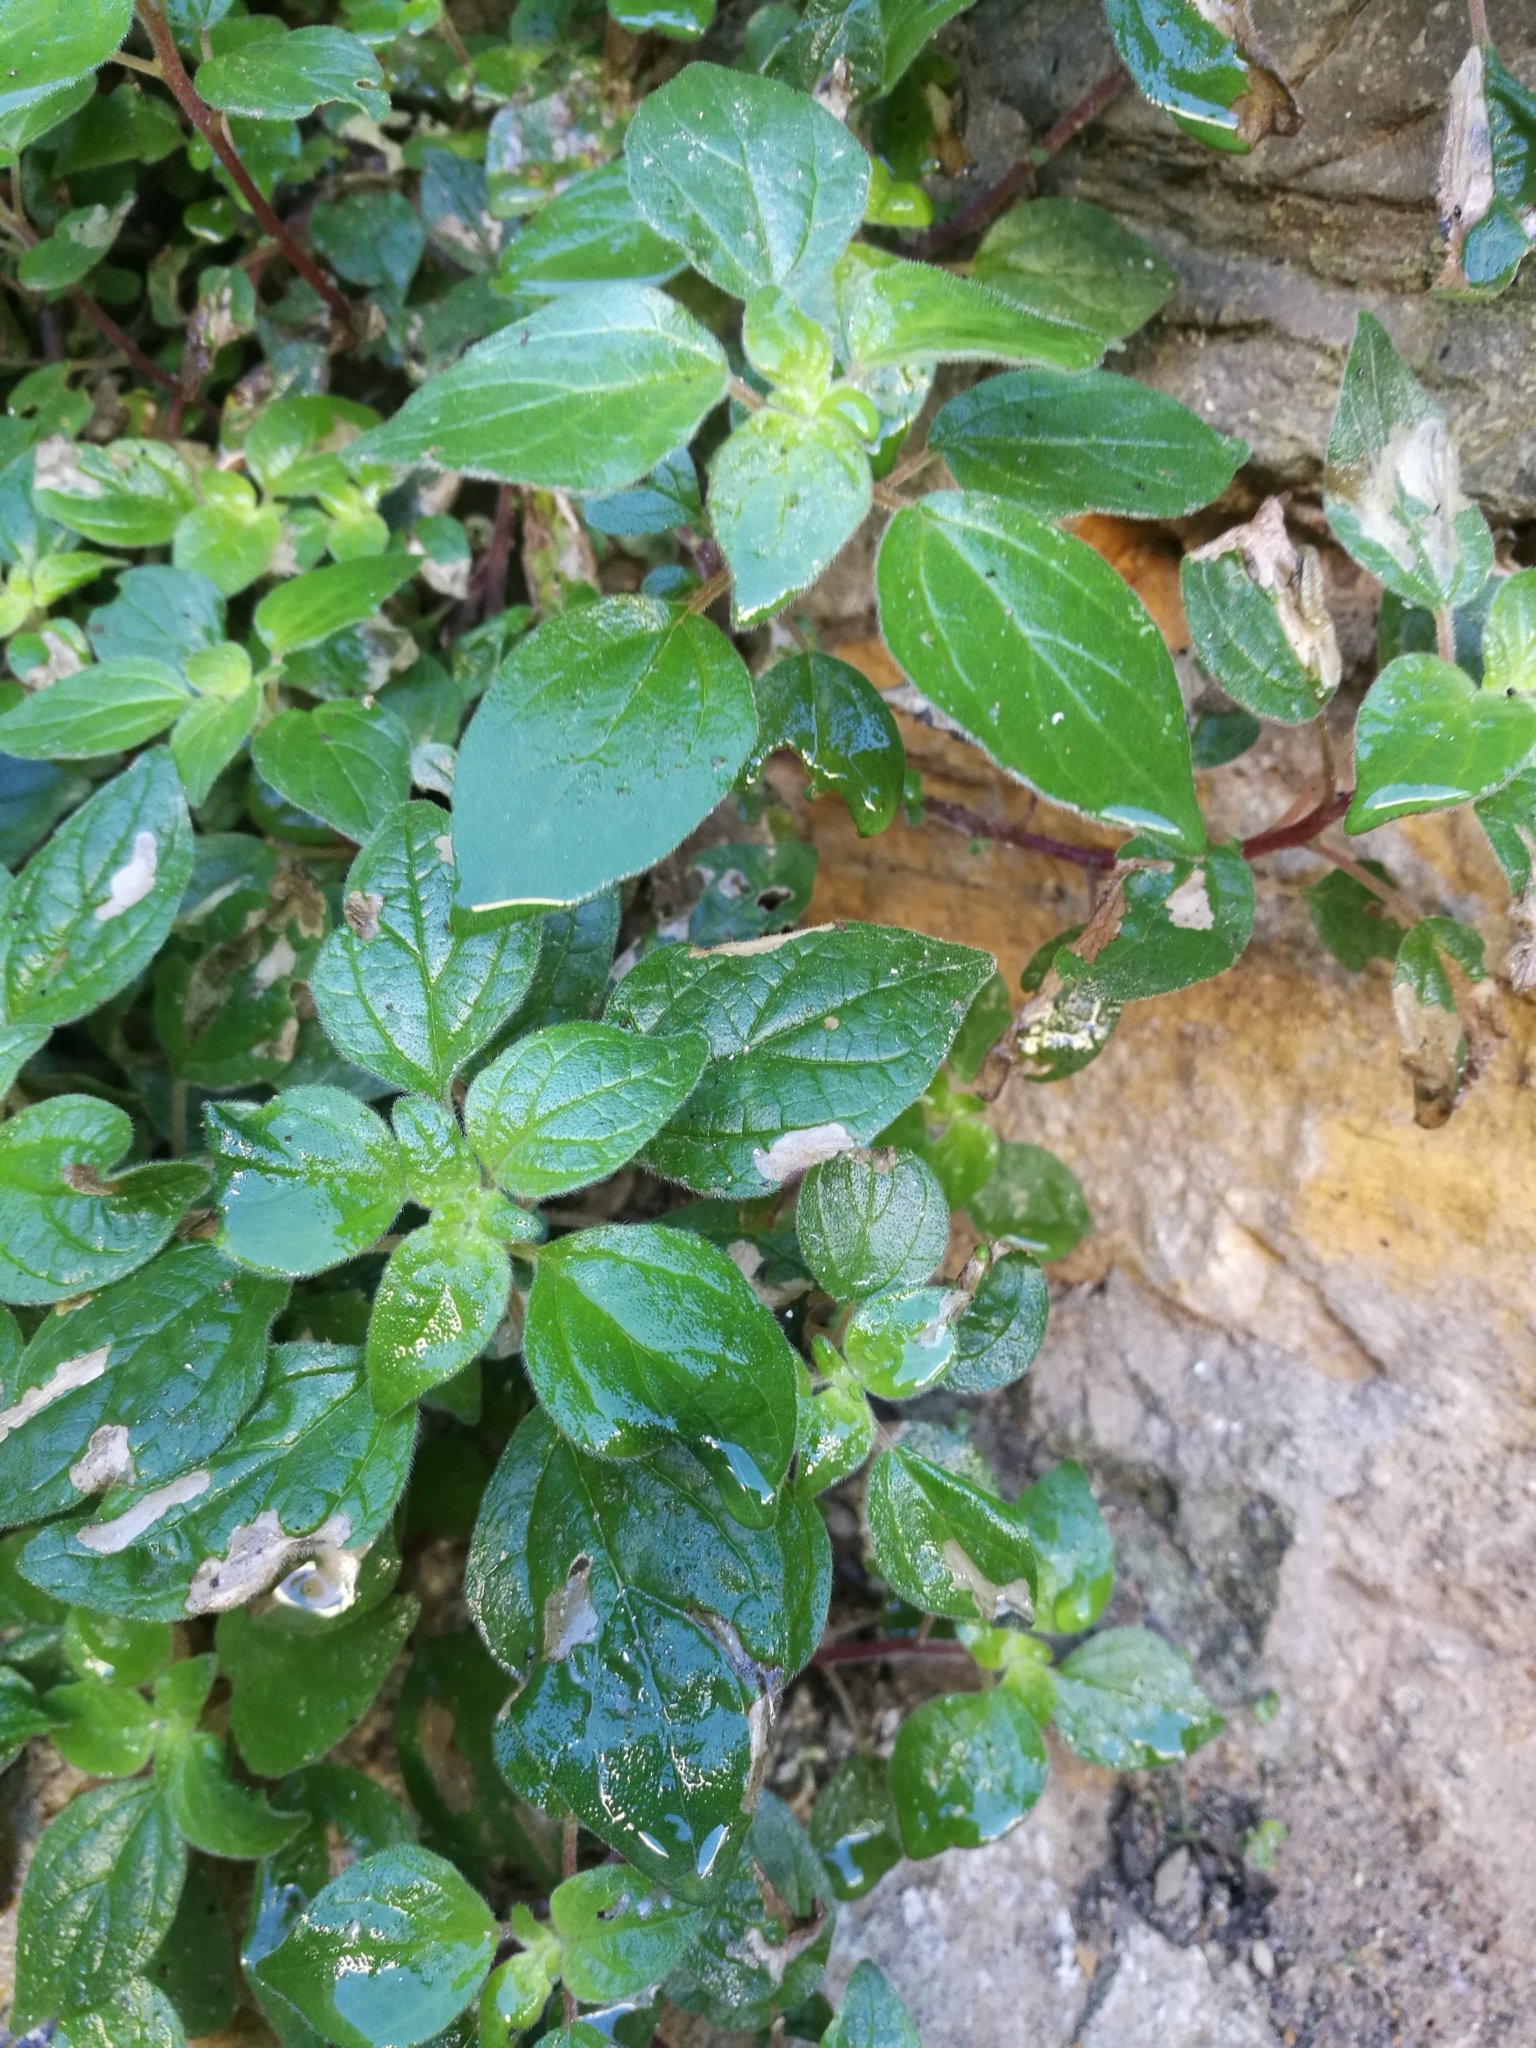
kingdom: Plantae
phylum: Tracheophyta
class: Magnoliopsida
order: Rosales
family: Urticaceae
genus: Parietaria
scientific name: Parietaria judaica
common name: Pellitory-of-the-wall
